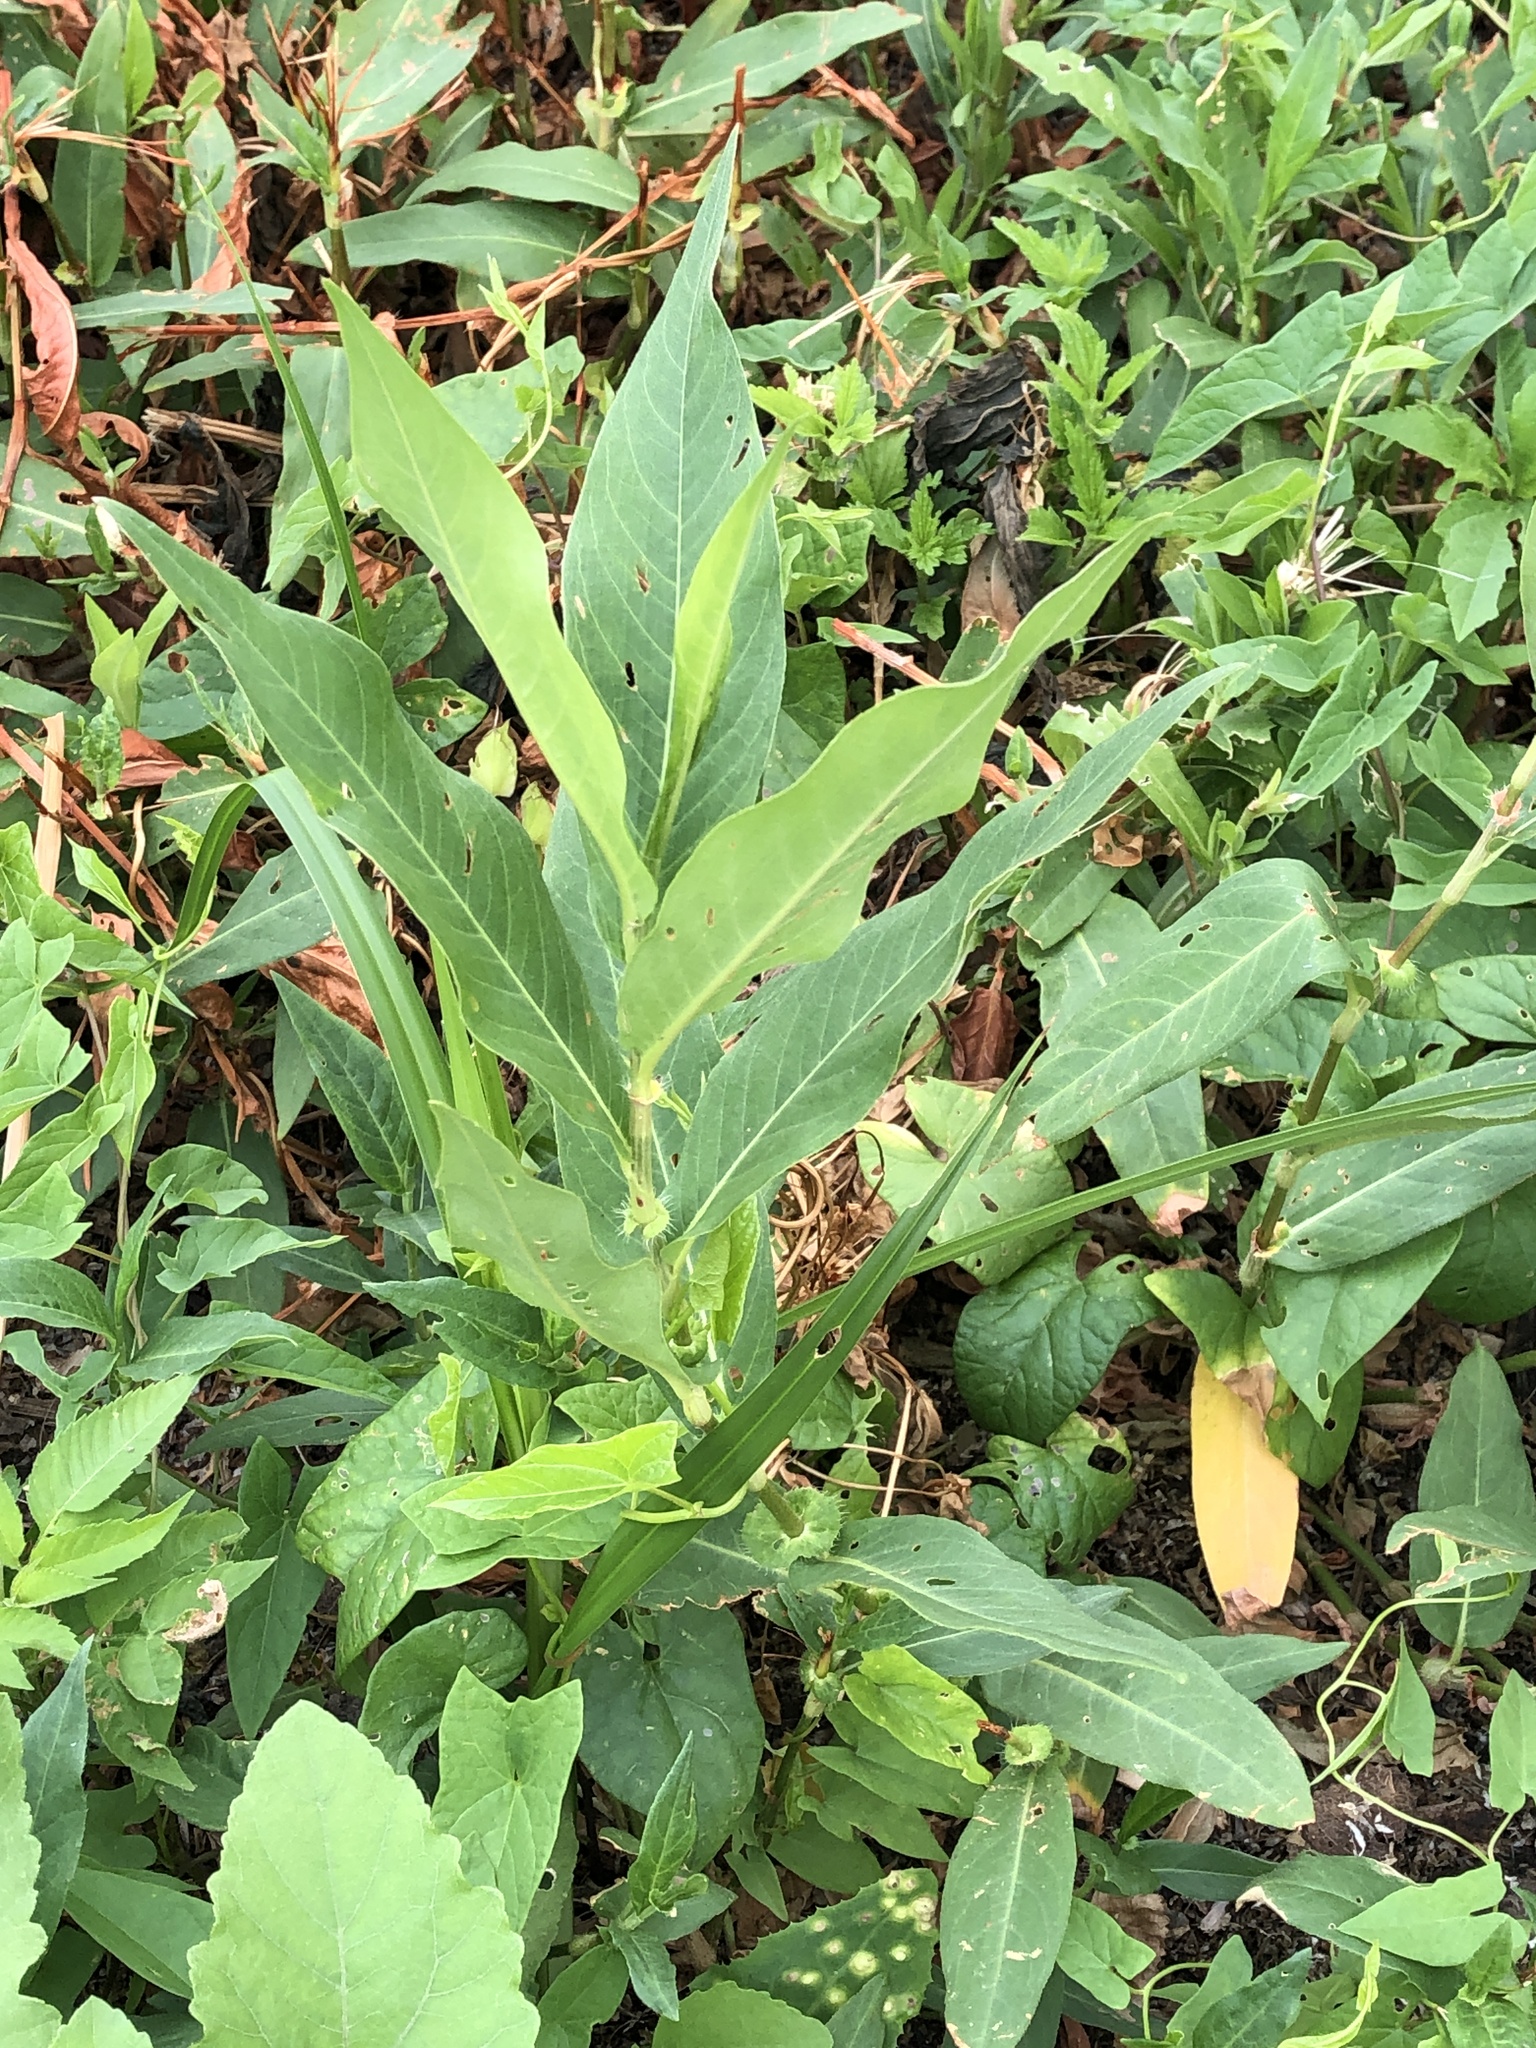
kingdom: Plantae
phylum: Tracheophyta
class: Magnoliopsida
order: Caryophyllales
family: Polygonaceae
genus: Persicaria
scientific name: Persicaria amphibia
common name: Amphibious bistort
